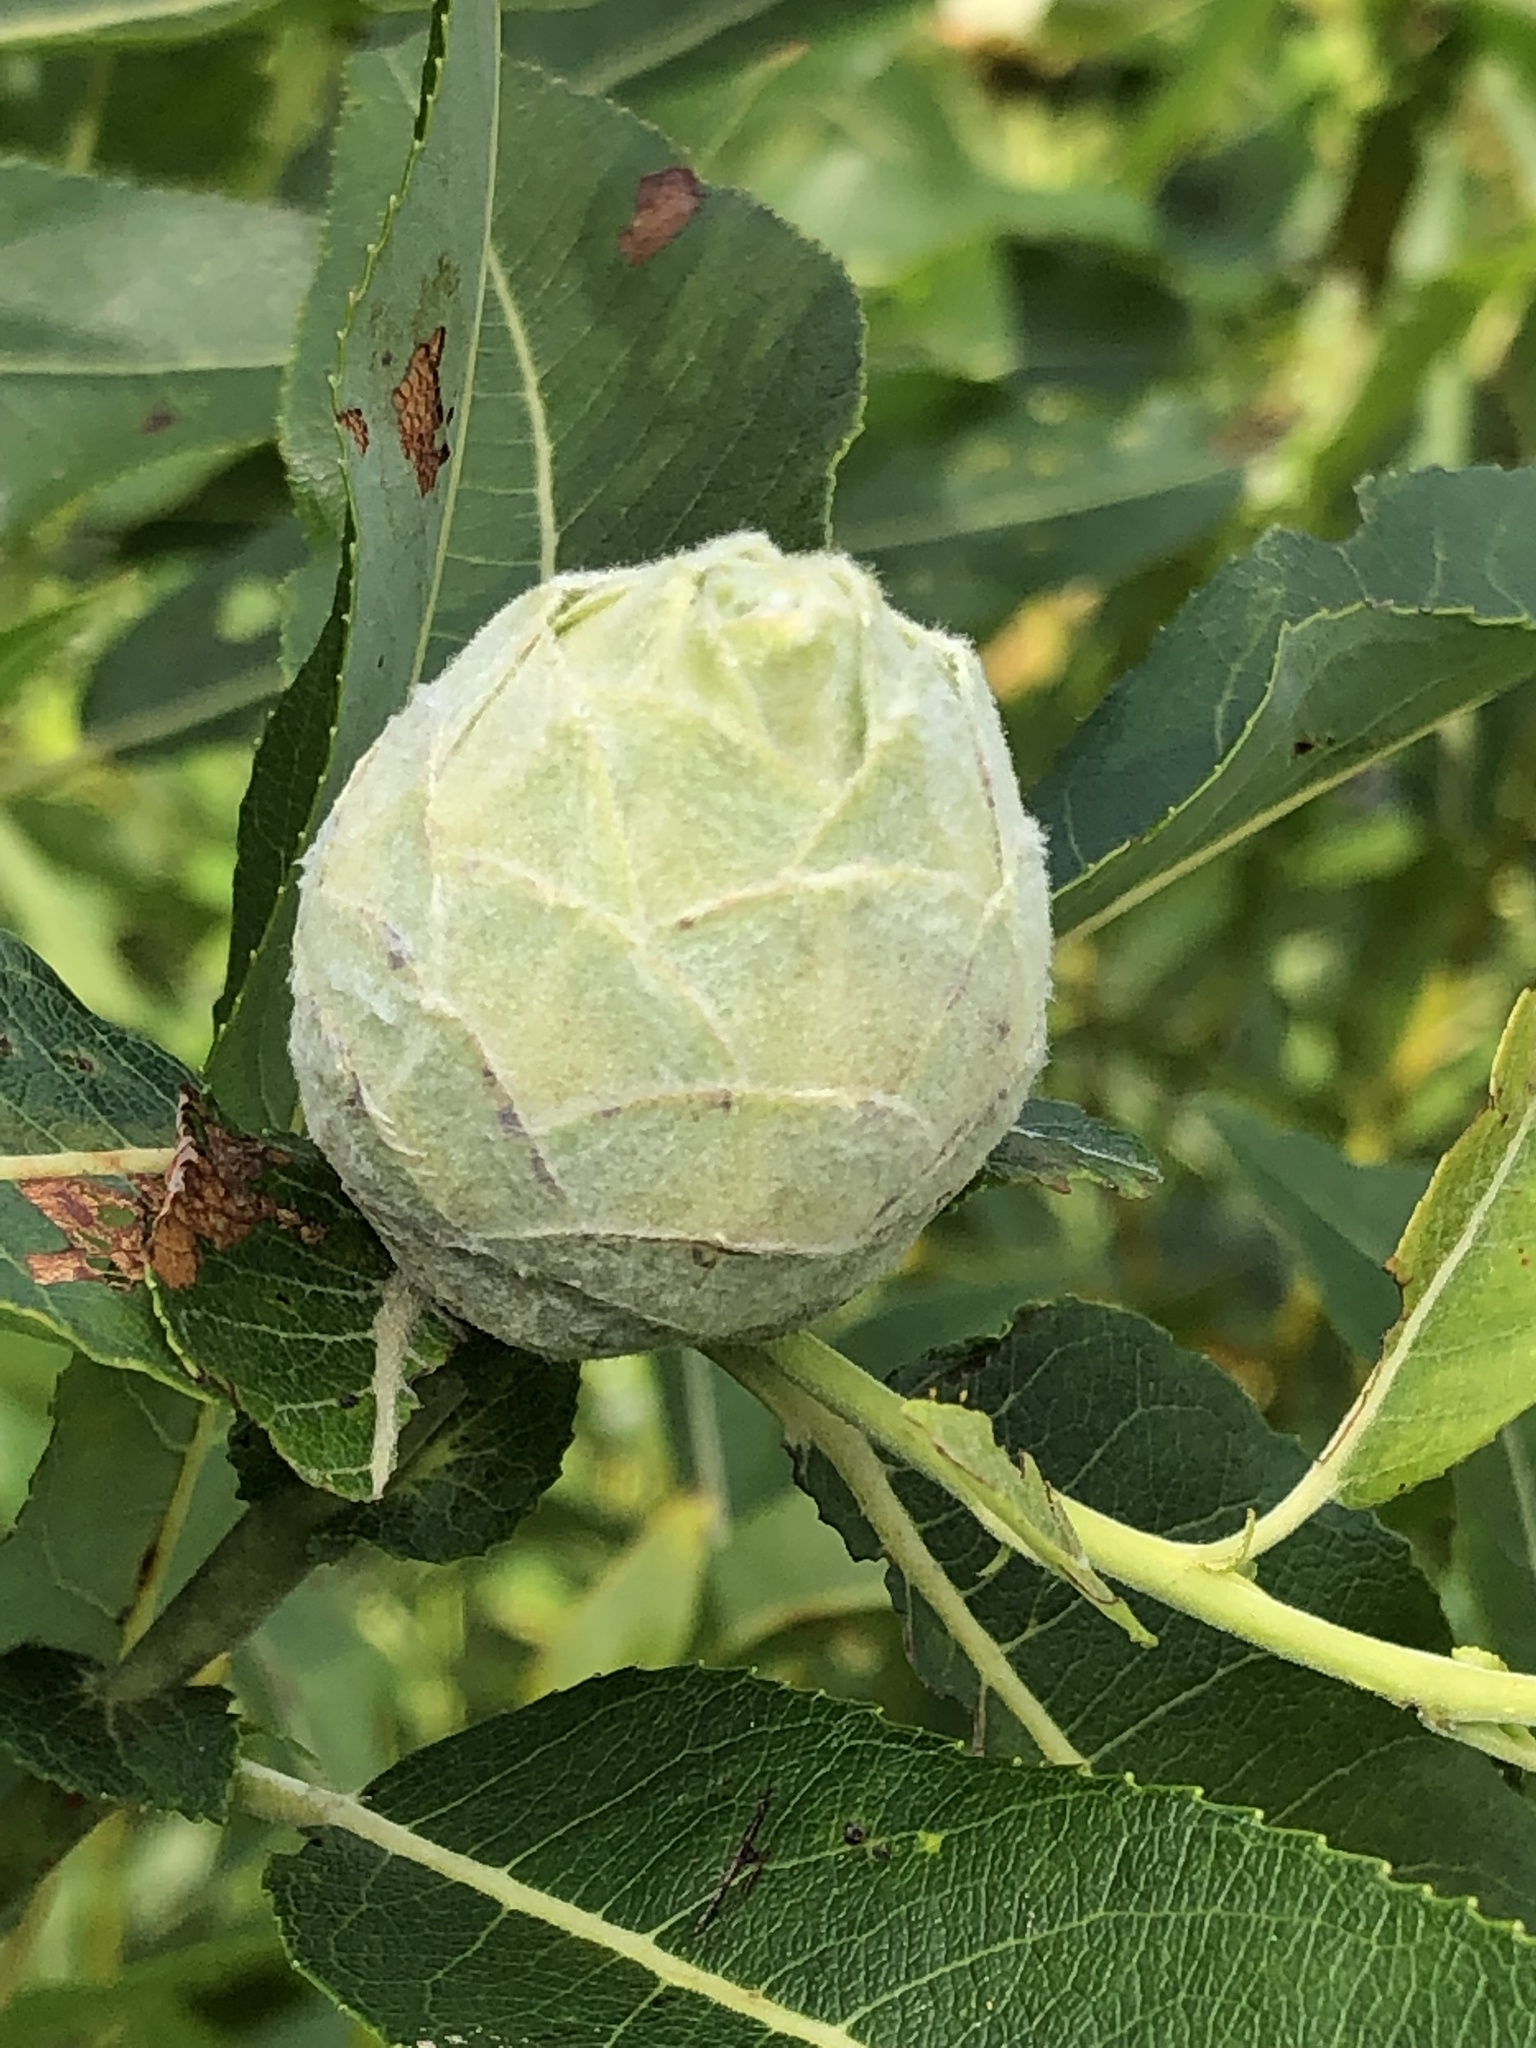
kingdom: Animalia
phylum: Arthropoda
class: Insecta
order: Diptera
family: Cecidomyiidae
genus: Rabdophaga
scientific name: Rabdophaga strobiloides
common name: Willow pinecone gall midge
